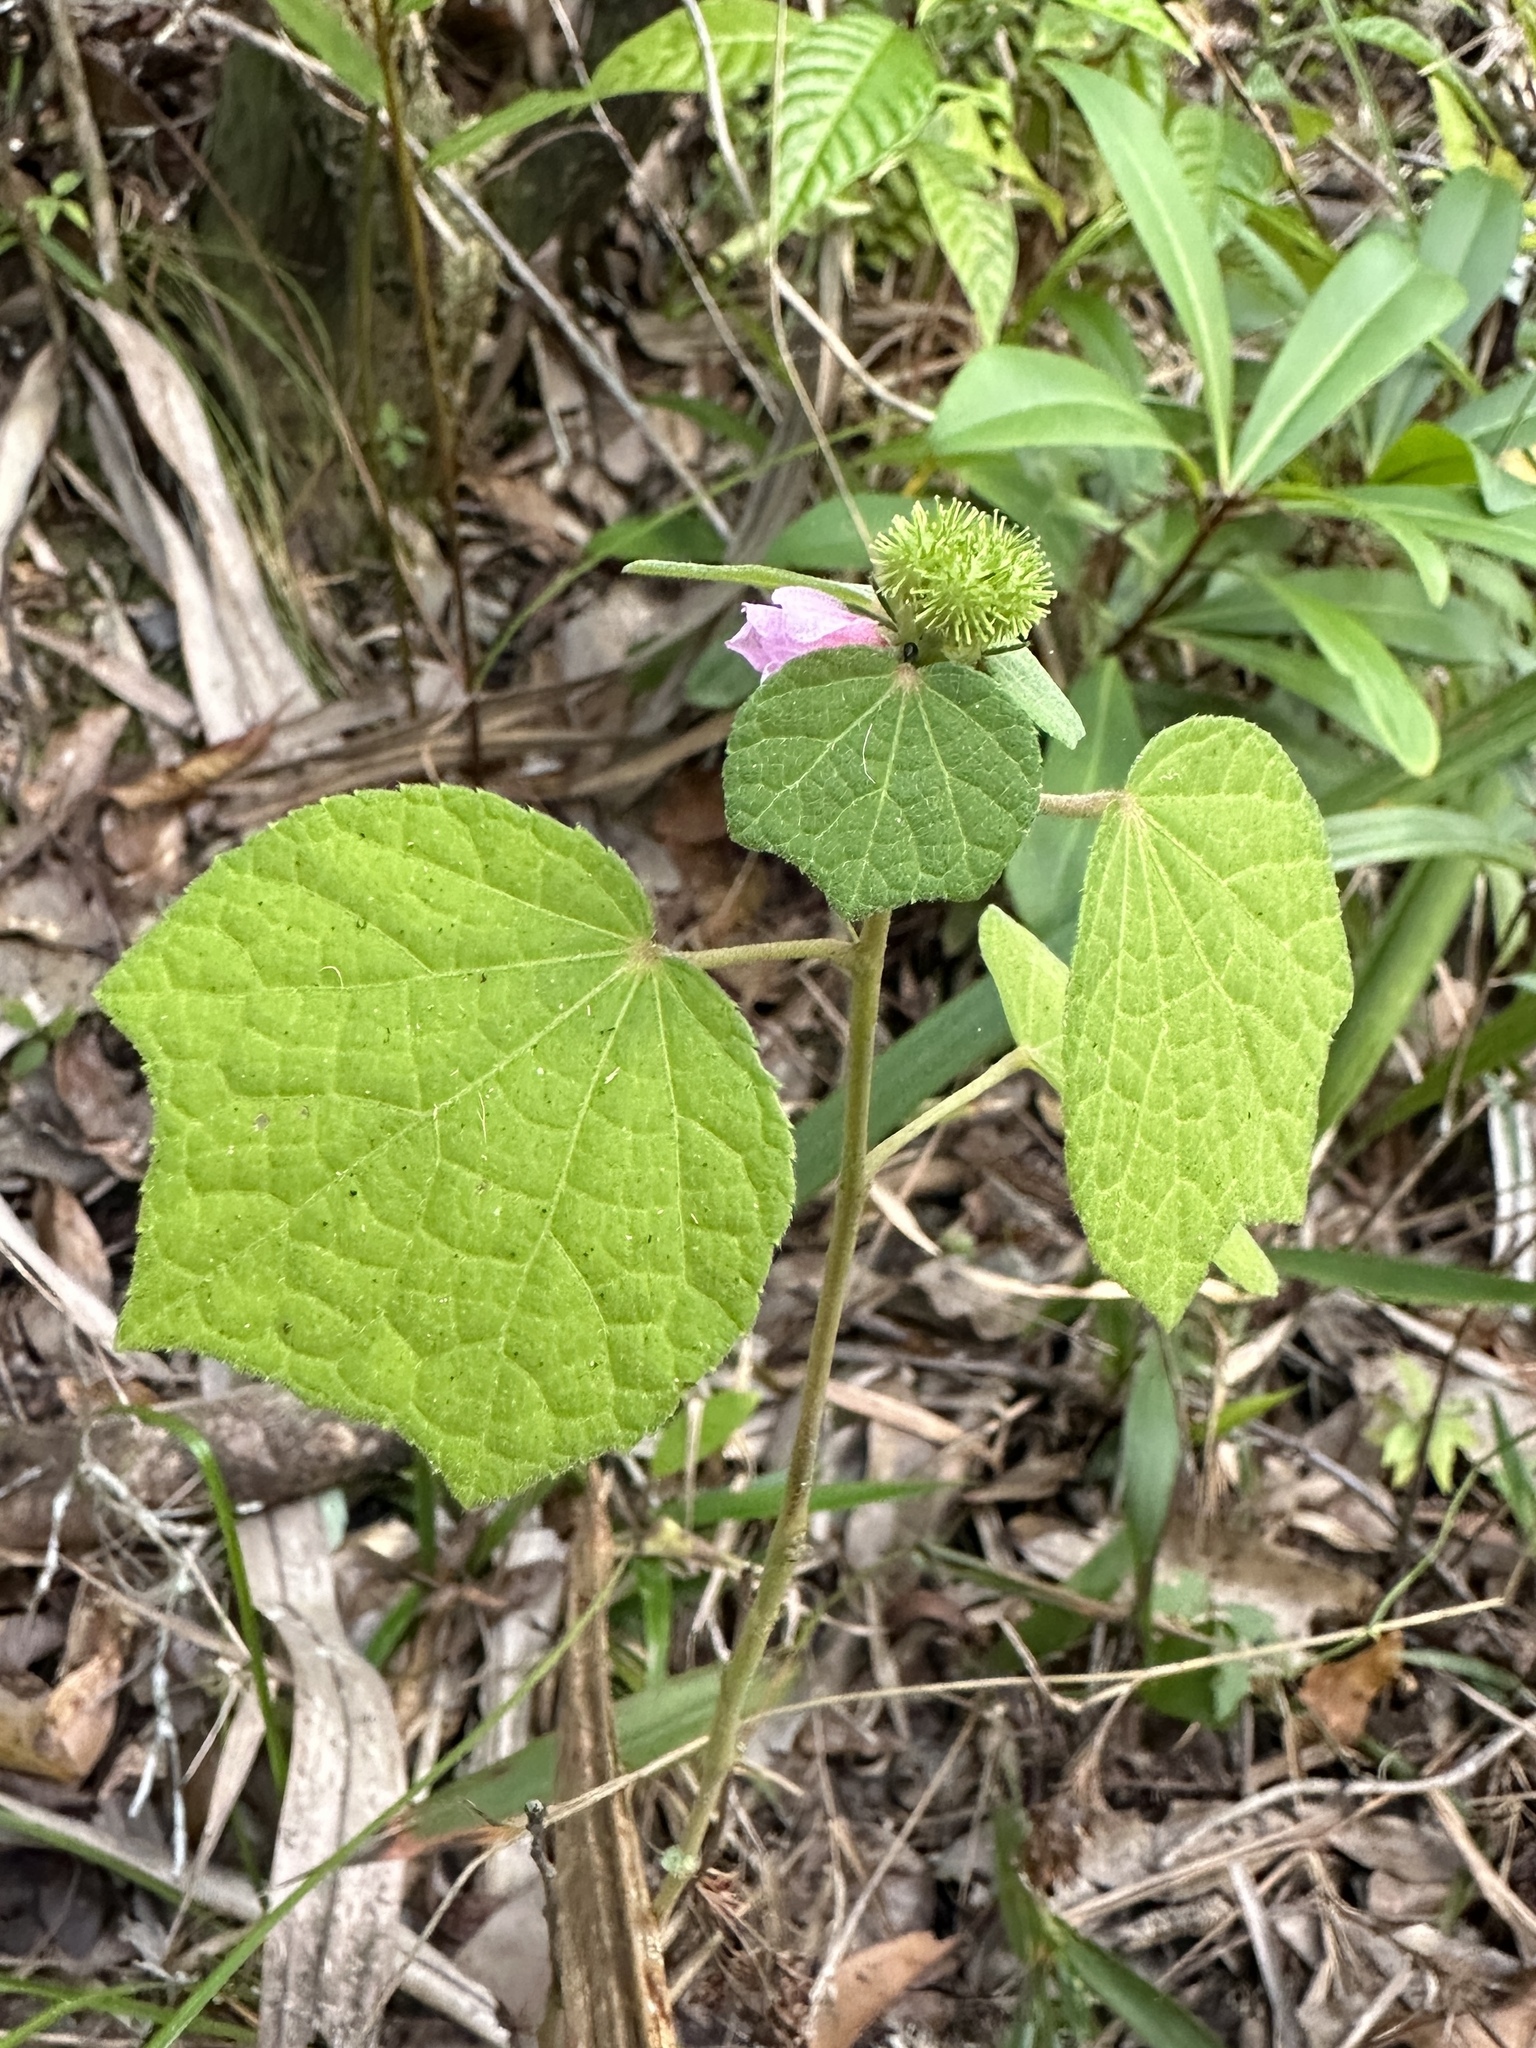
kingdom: Plantae
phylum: Tracheophyta
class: Magnoliopsida
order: Malvales
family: Malvaceae
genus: Urena
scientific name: Urena lobata
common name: Caesarweed
